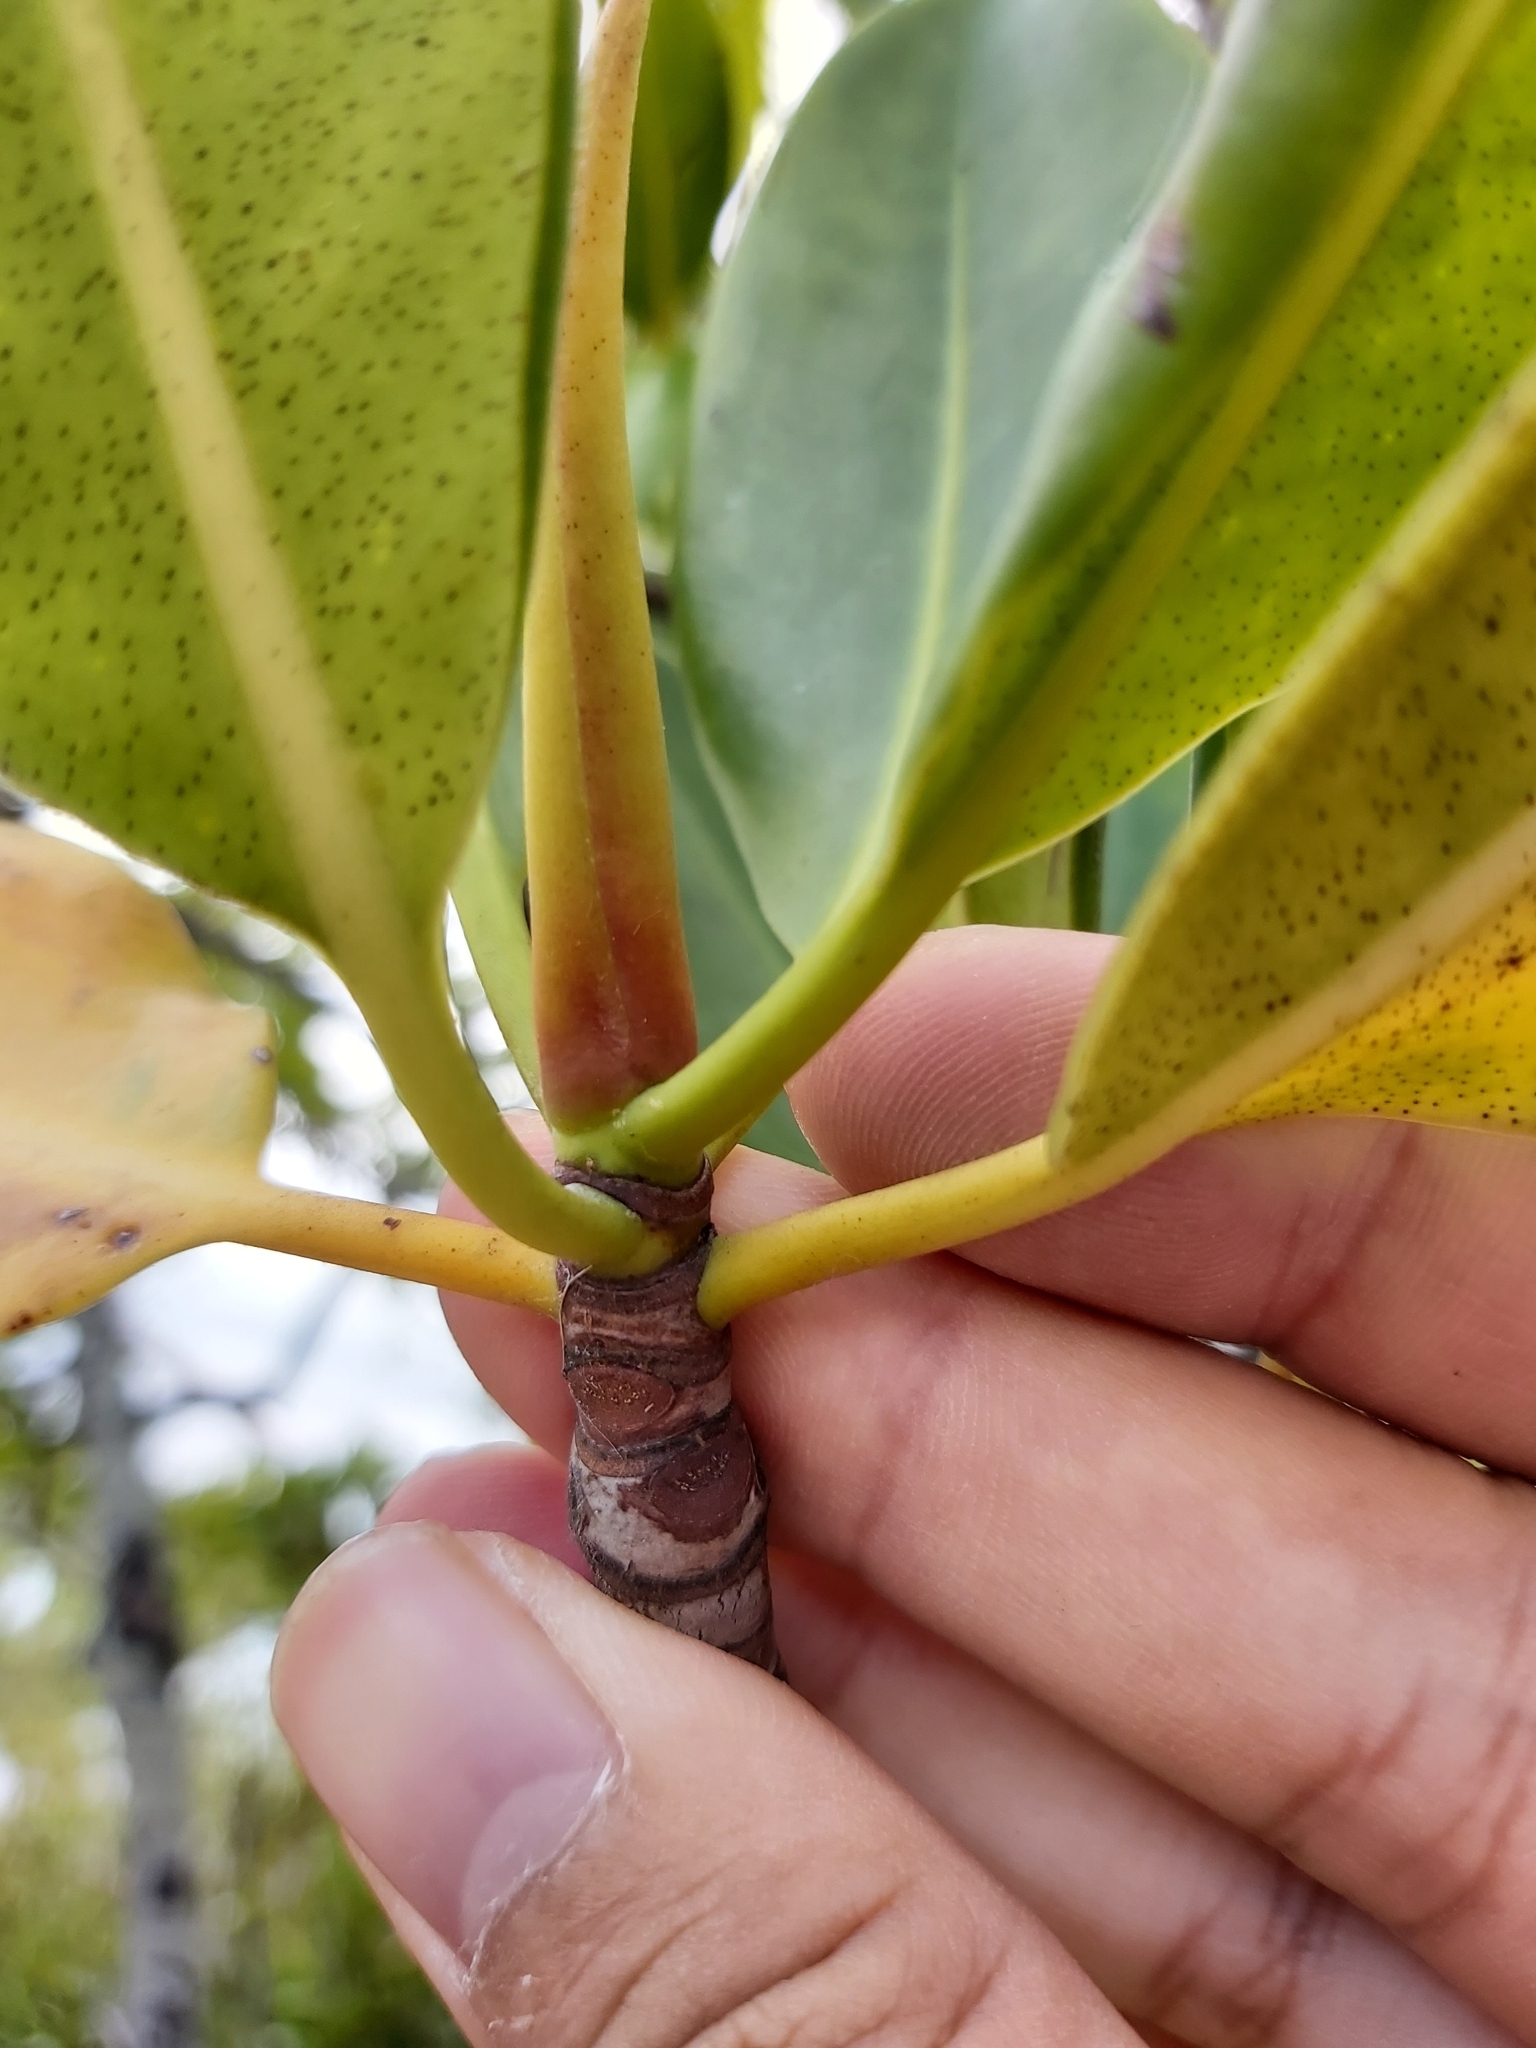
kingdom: Plantae
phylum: Tracheophyta
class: Magnoliopsida
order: Malpighiales
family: Rhizophoraceae
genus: Rhizophora
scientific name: Rhizophora stylosa
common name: Red mangrove
